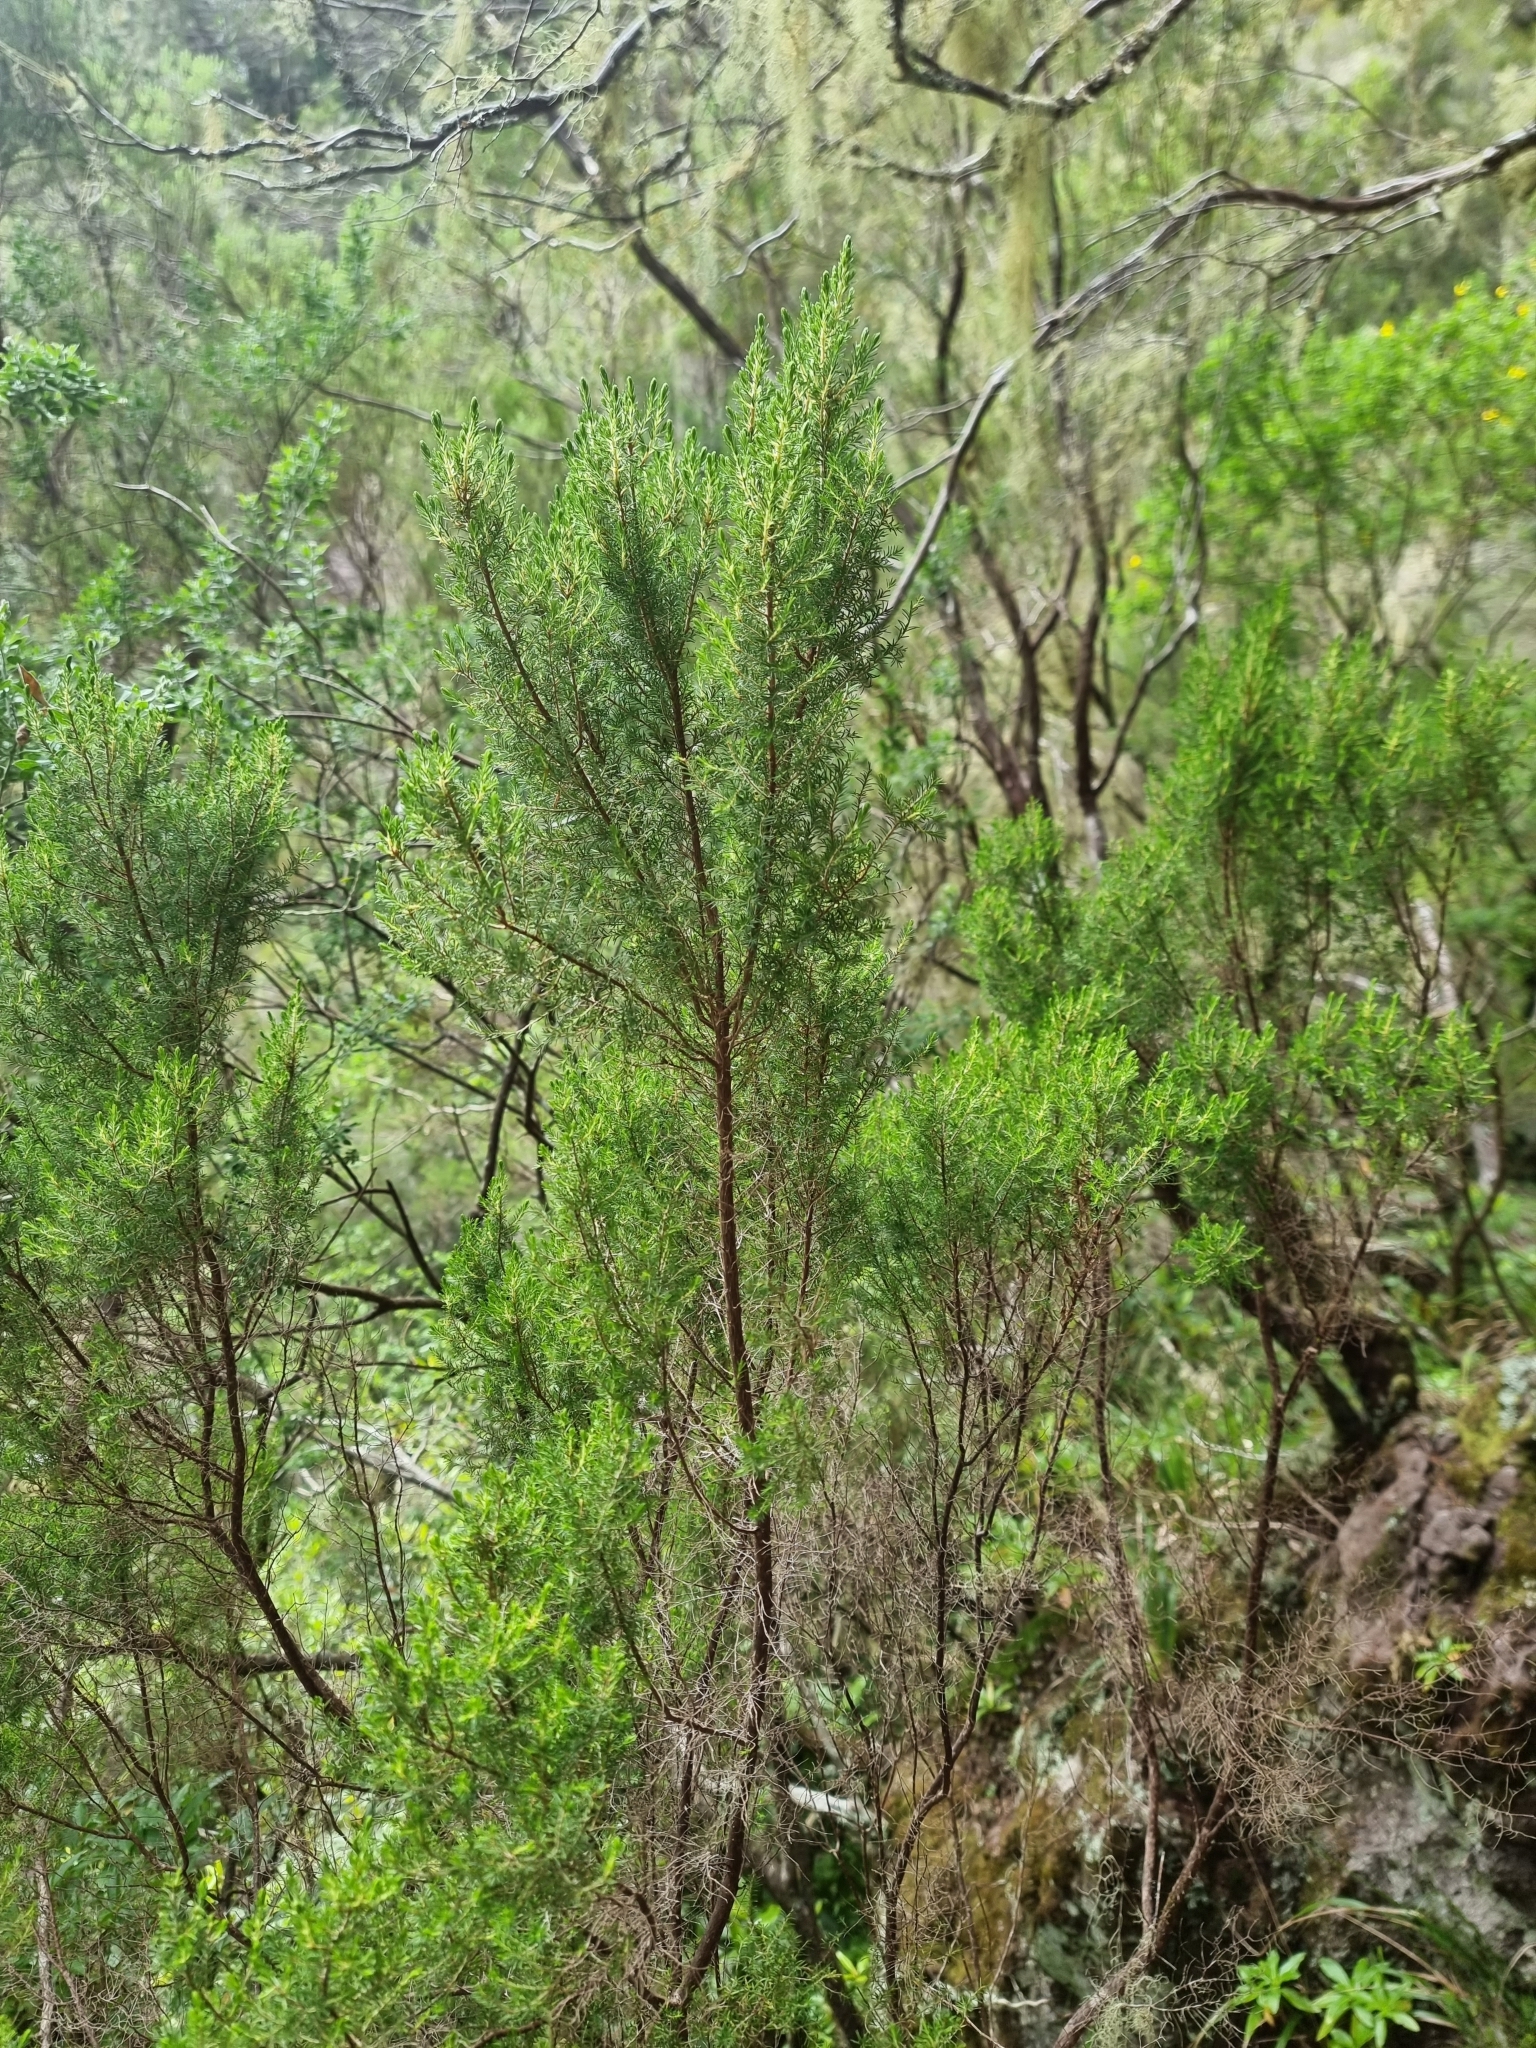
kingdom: Plantae
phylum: Tracheophyta
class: Magnoliopsida
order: Ericales
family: Ericaceae
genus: Erica
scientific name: Erica canariensis
